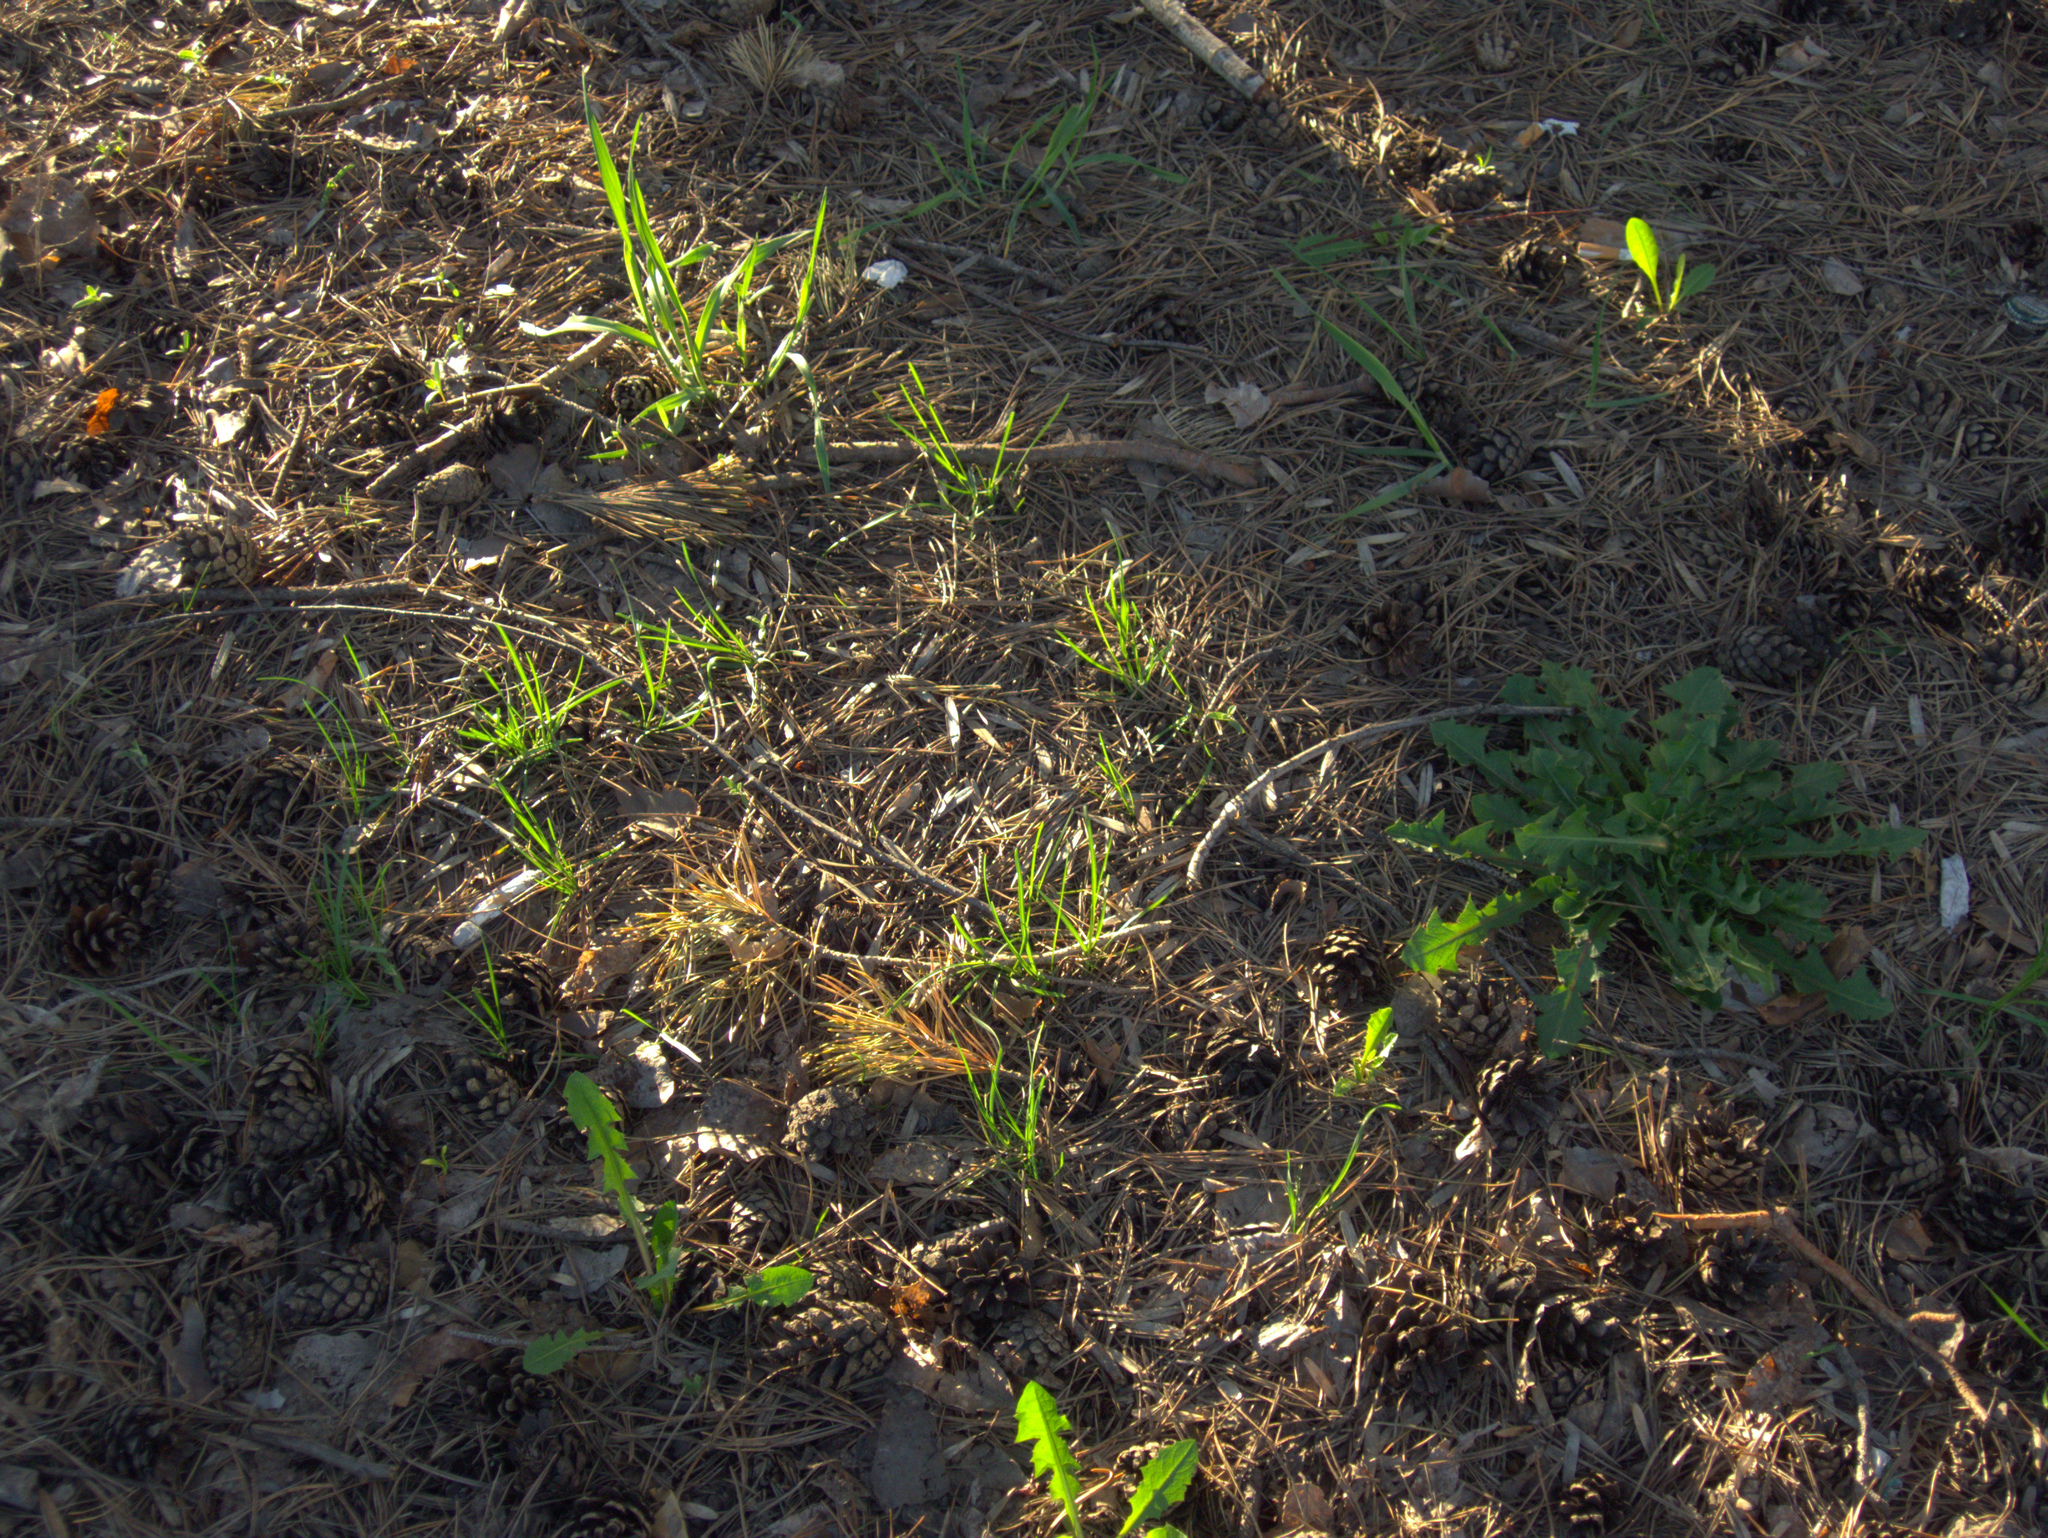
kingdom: Plantae
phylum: Tracheophyta
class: Magnoliopsida
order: Asterales
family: Asteraceae
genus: Taraxacum
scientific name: Taraxacum officinale
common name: Common dandelion
